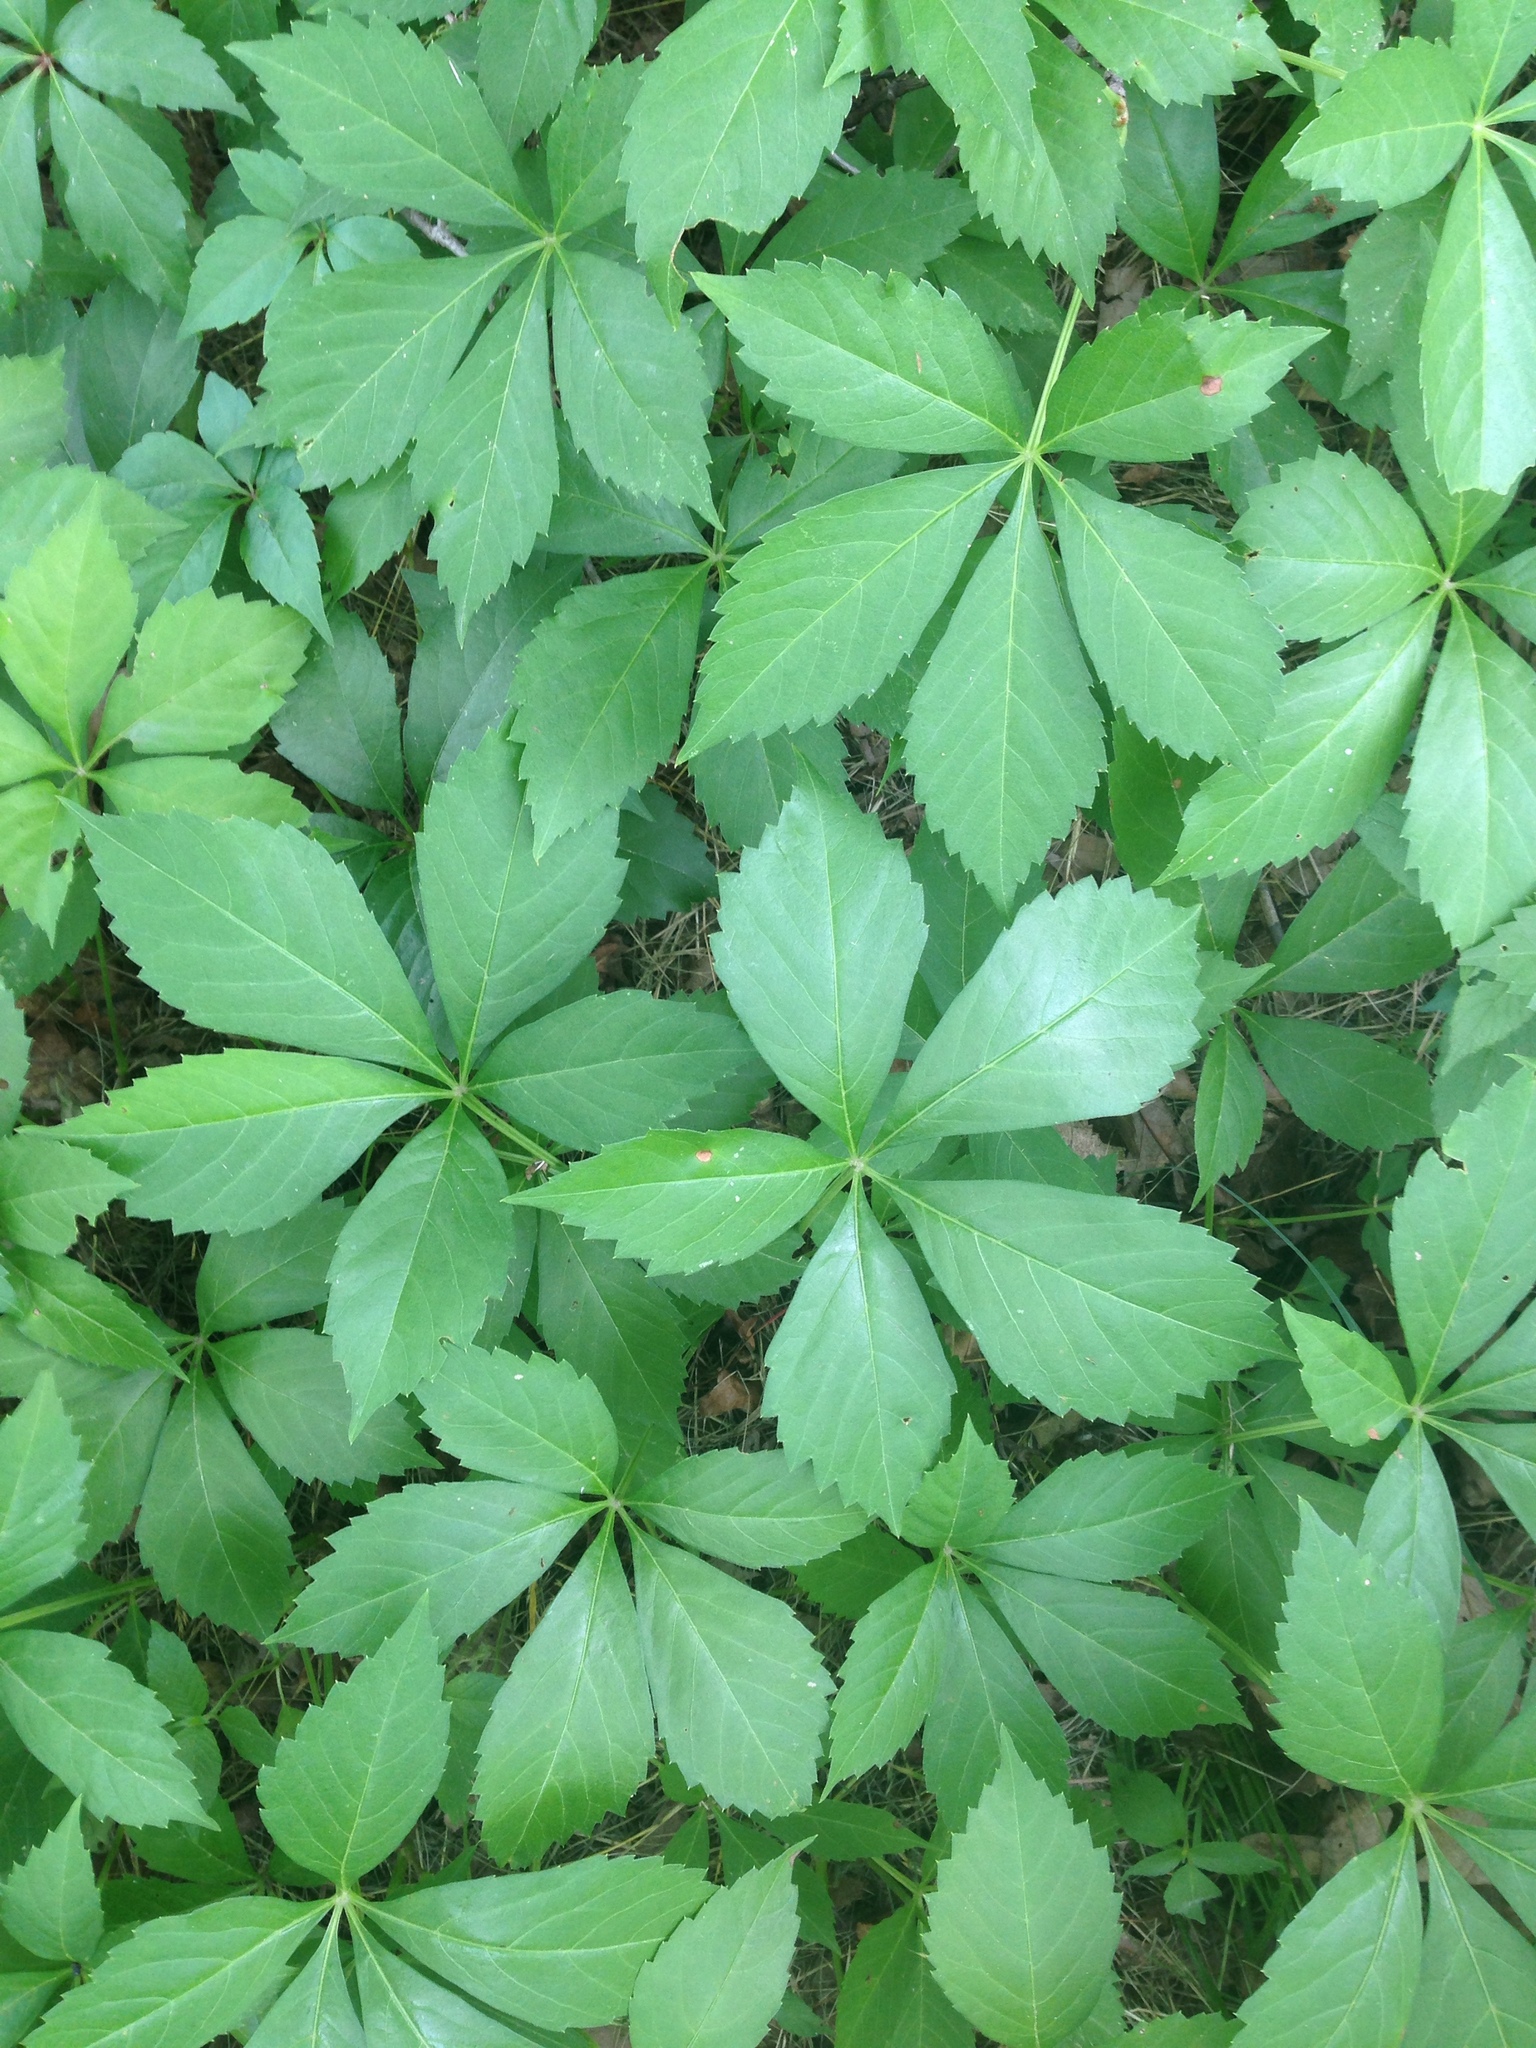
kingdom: Plantae
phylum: Tracheophyta
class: Magnoliopsida
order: Vitales
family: Vitaceae
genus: Parthenocissus
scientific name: Parthenocissus quinquefolia
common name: Virginia-creeper
